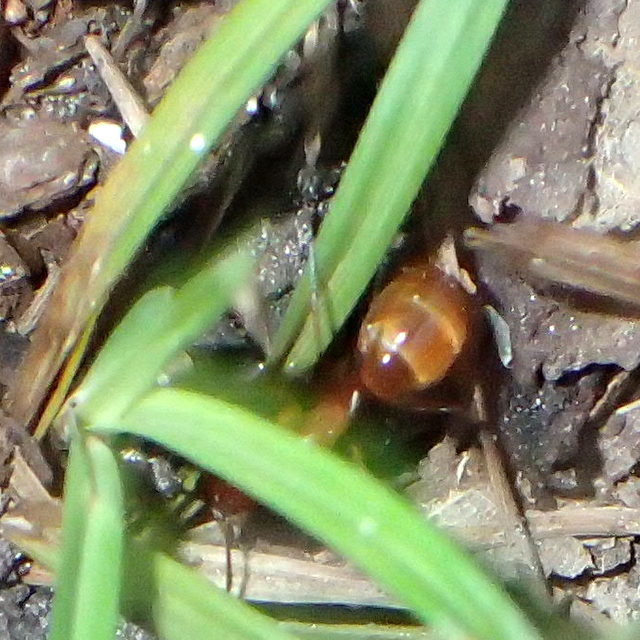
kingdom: Animalia
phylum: Arthropoda
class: Insecta
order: Hymenoptera
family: Formicidae
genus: Camponotus
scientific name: Camponotus castaneus
